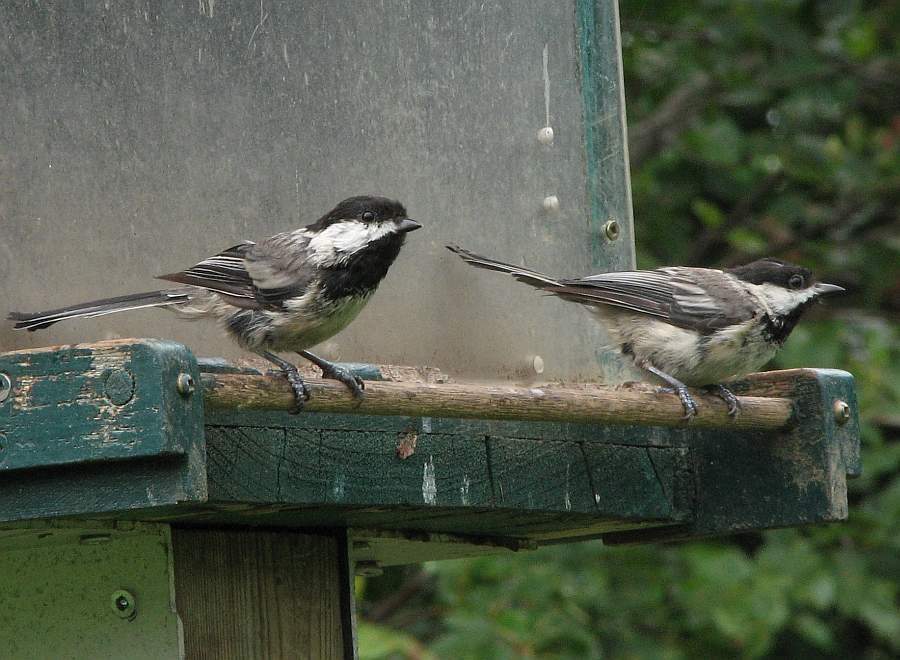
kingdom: Animalia
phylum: Chordata
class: Aves
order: Passeriformes
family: Paridae
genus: Poecile
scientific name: Poecile atricapillus
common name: Black-capped chickadee
